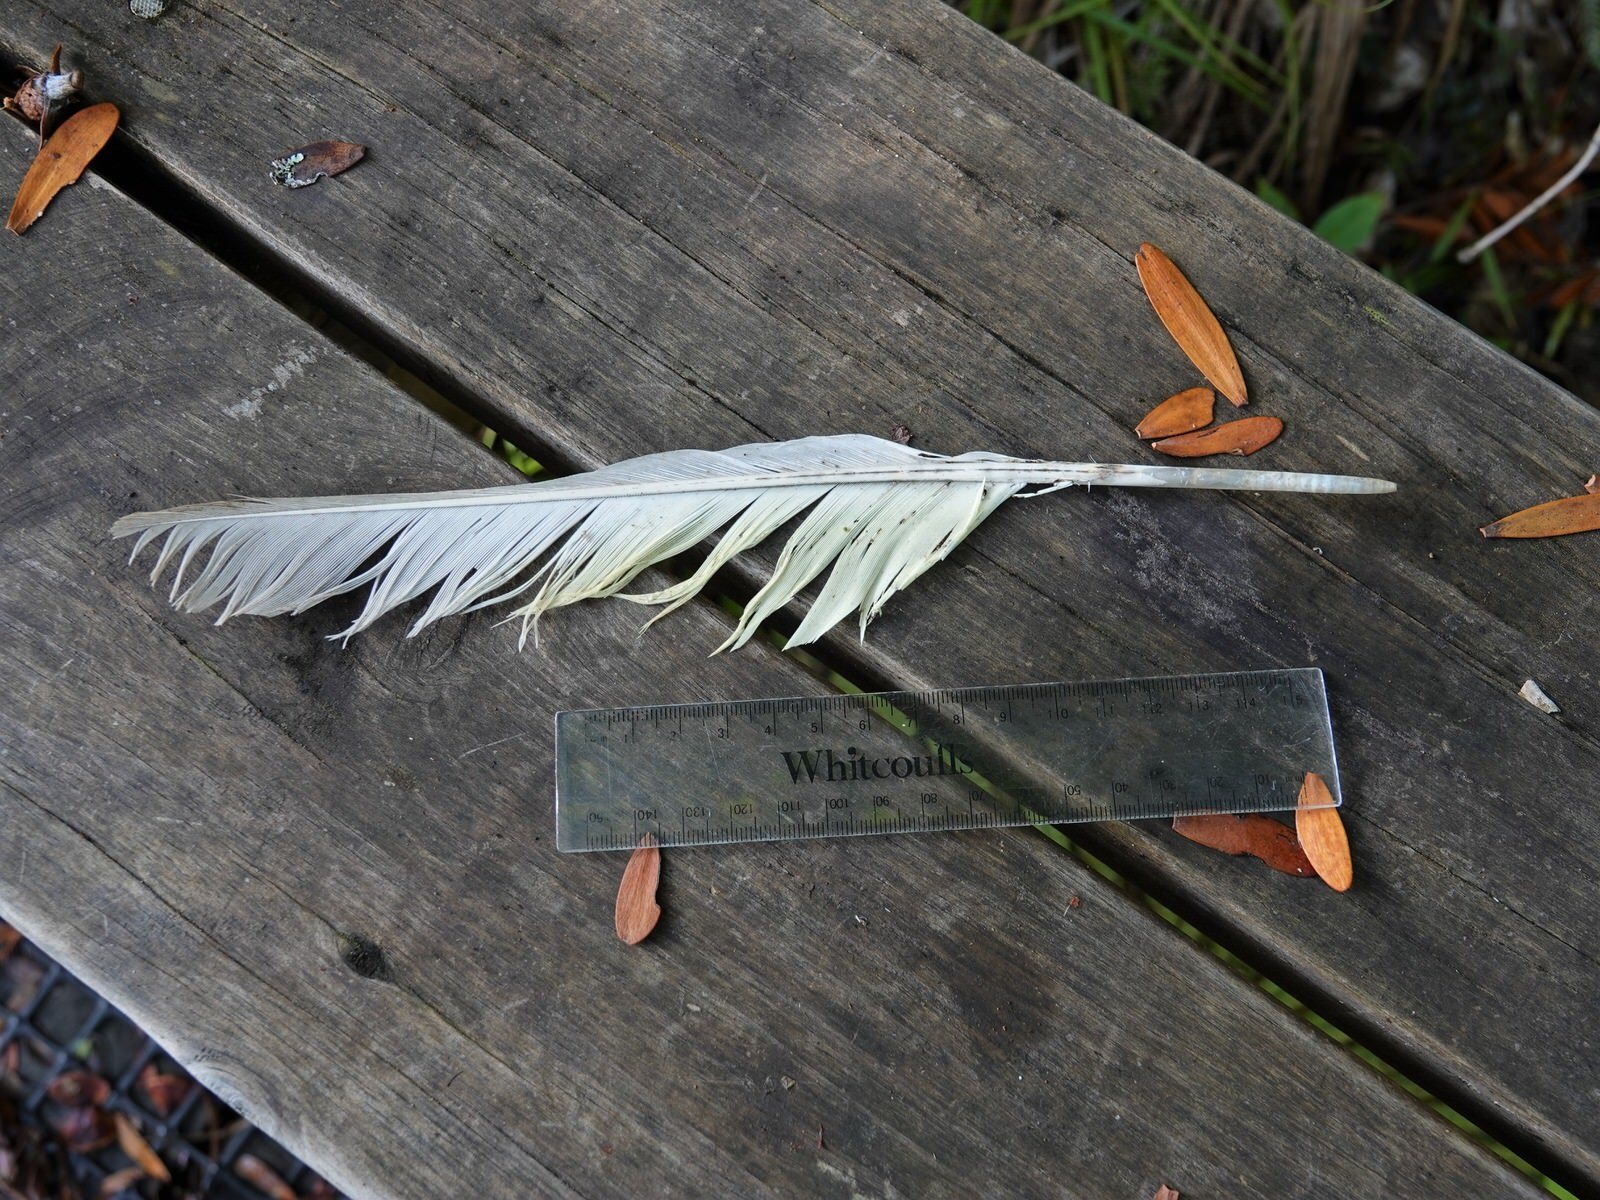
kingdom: Animalia
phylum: Chordata
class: Aves
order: Psittaciformes
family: Psittacidae
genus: Cacatua
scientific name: Cacatua galerita
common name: Sulphur-crested cockatoo
